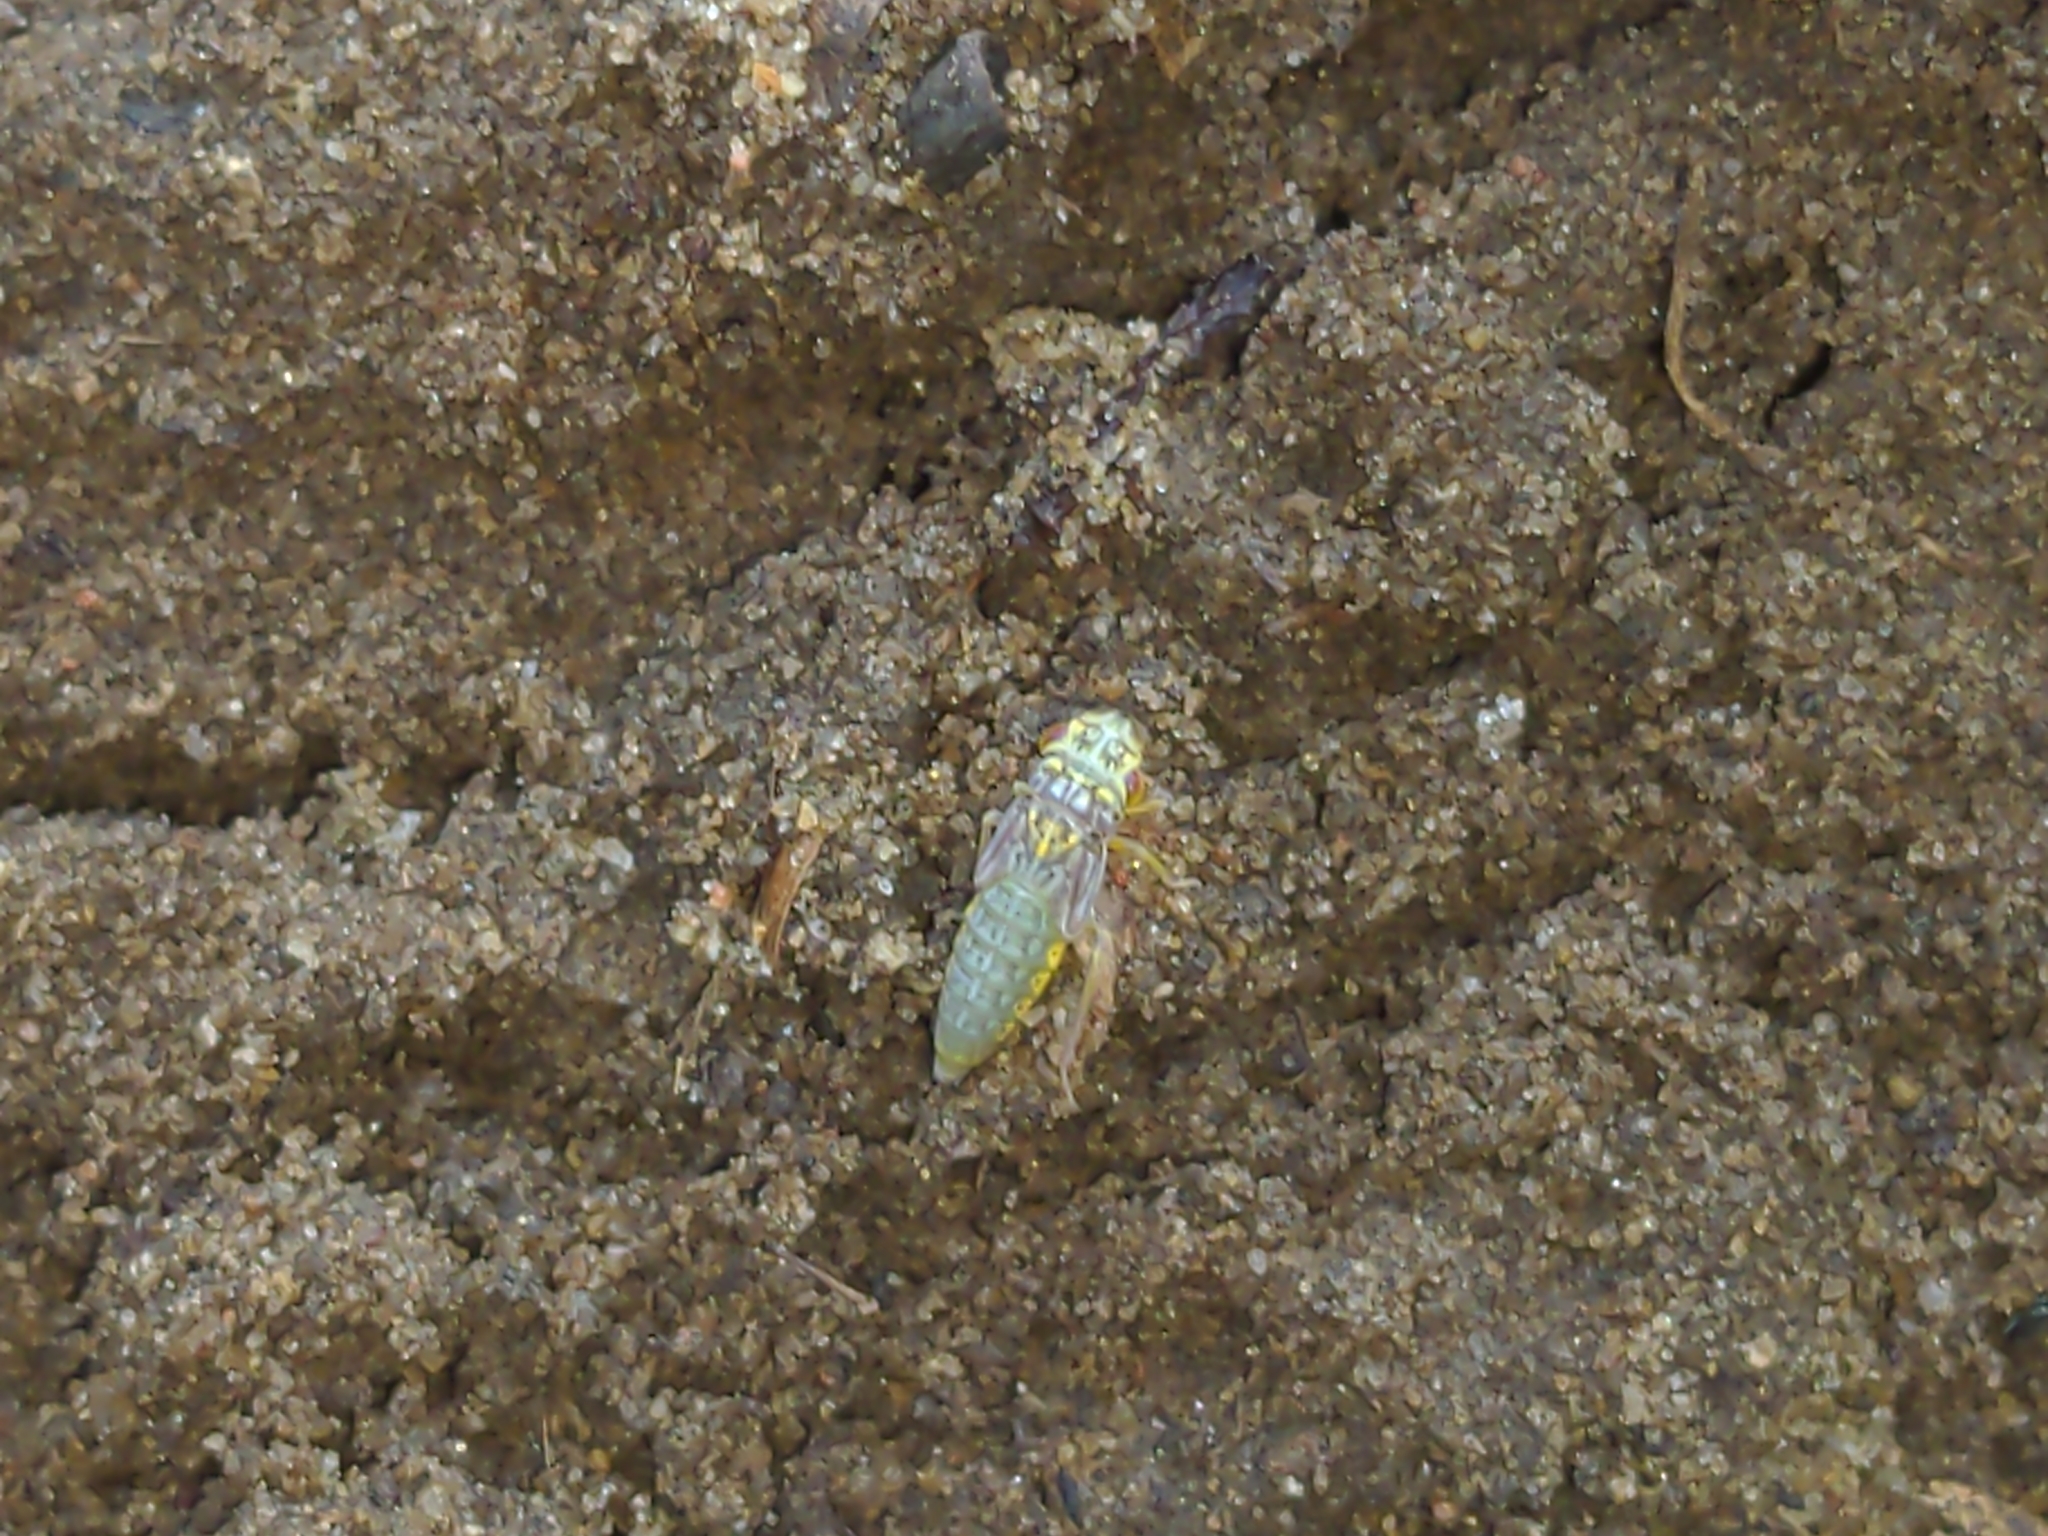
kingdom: Animalia
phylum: Arthropoda
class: Insecta
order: Hemiptera
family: Cicadellidae
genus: Oncometopia
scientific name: Oncometopia orbona
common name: Broad-headed sharpshooter
